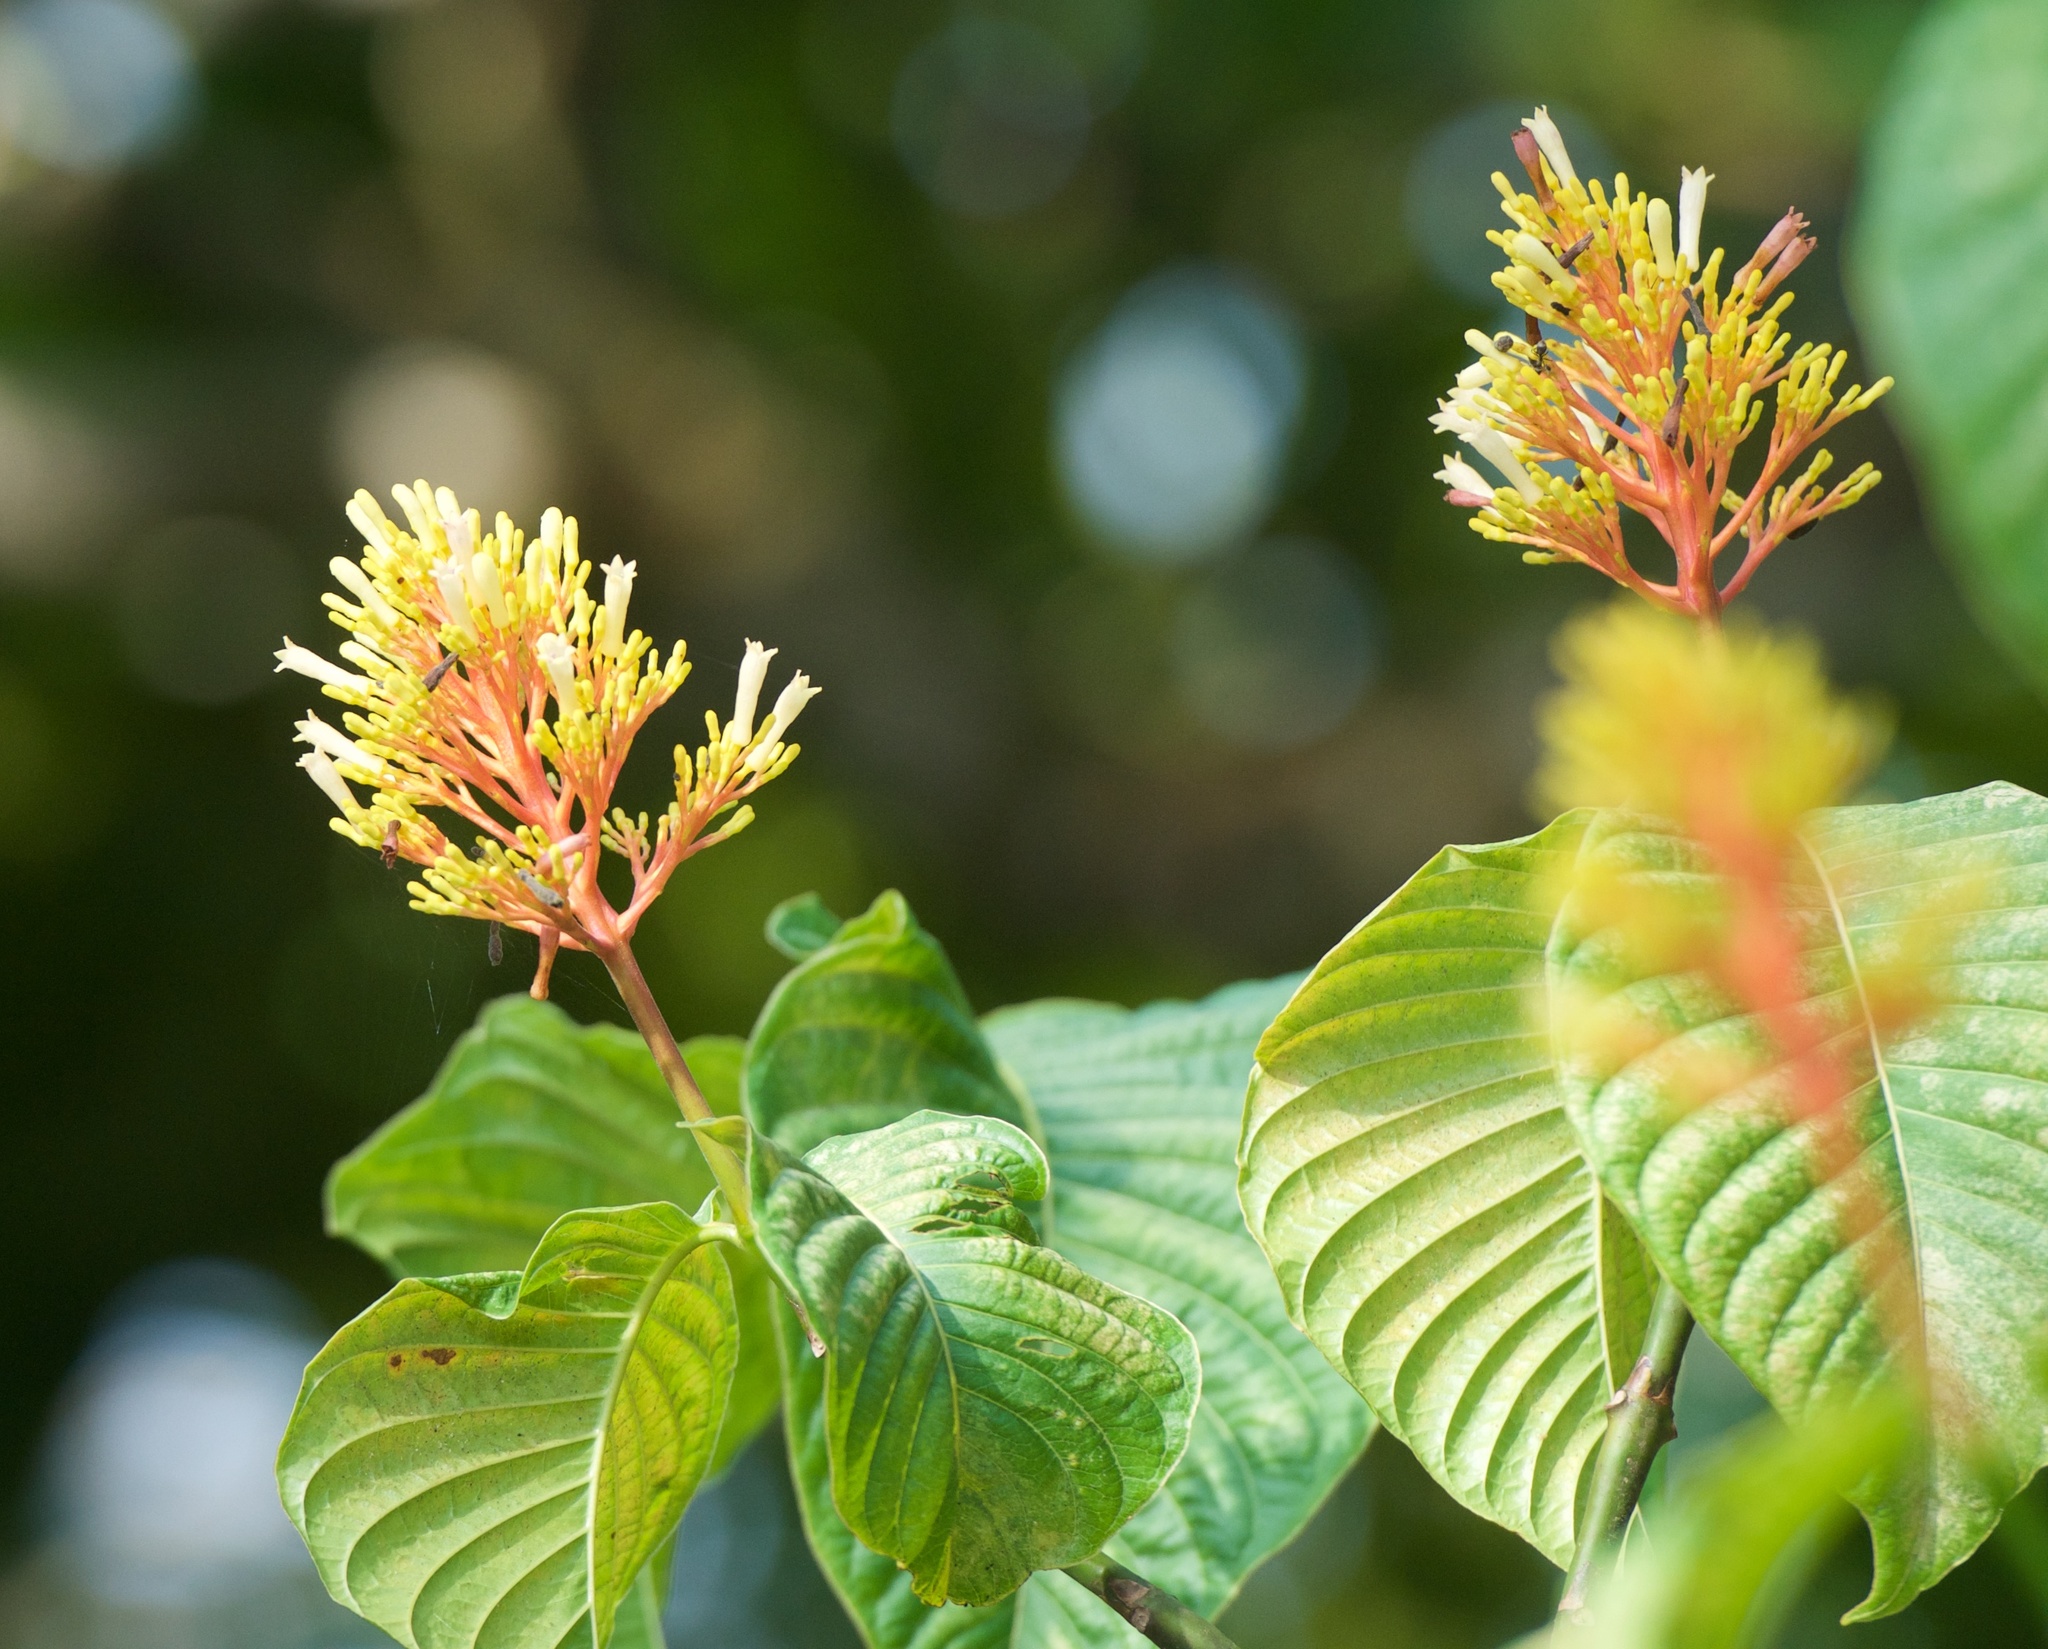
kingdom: Plantae
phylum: Tracheophyta
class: Magnoliopsida
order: Gentianales
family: Rubiaceae
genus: Palicourea
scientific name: Palicourea guianensis
